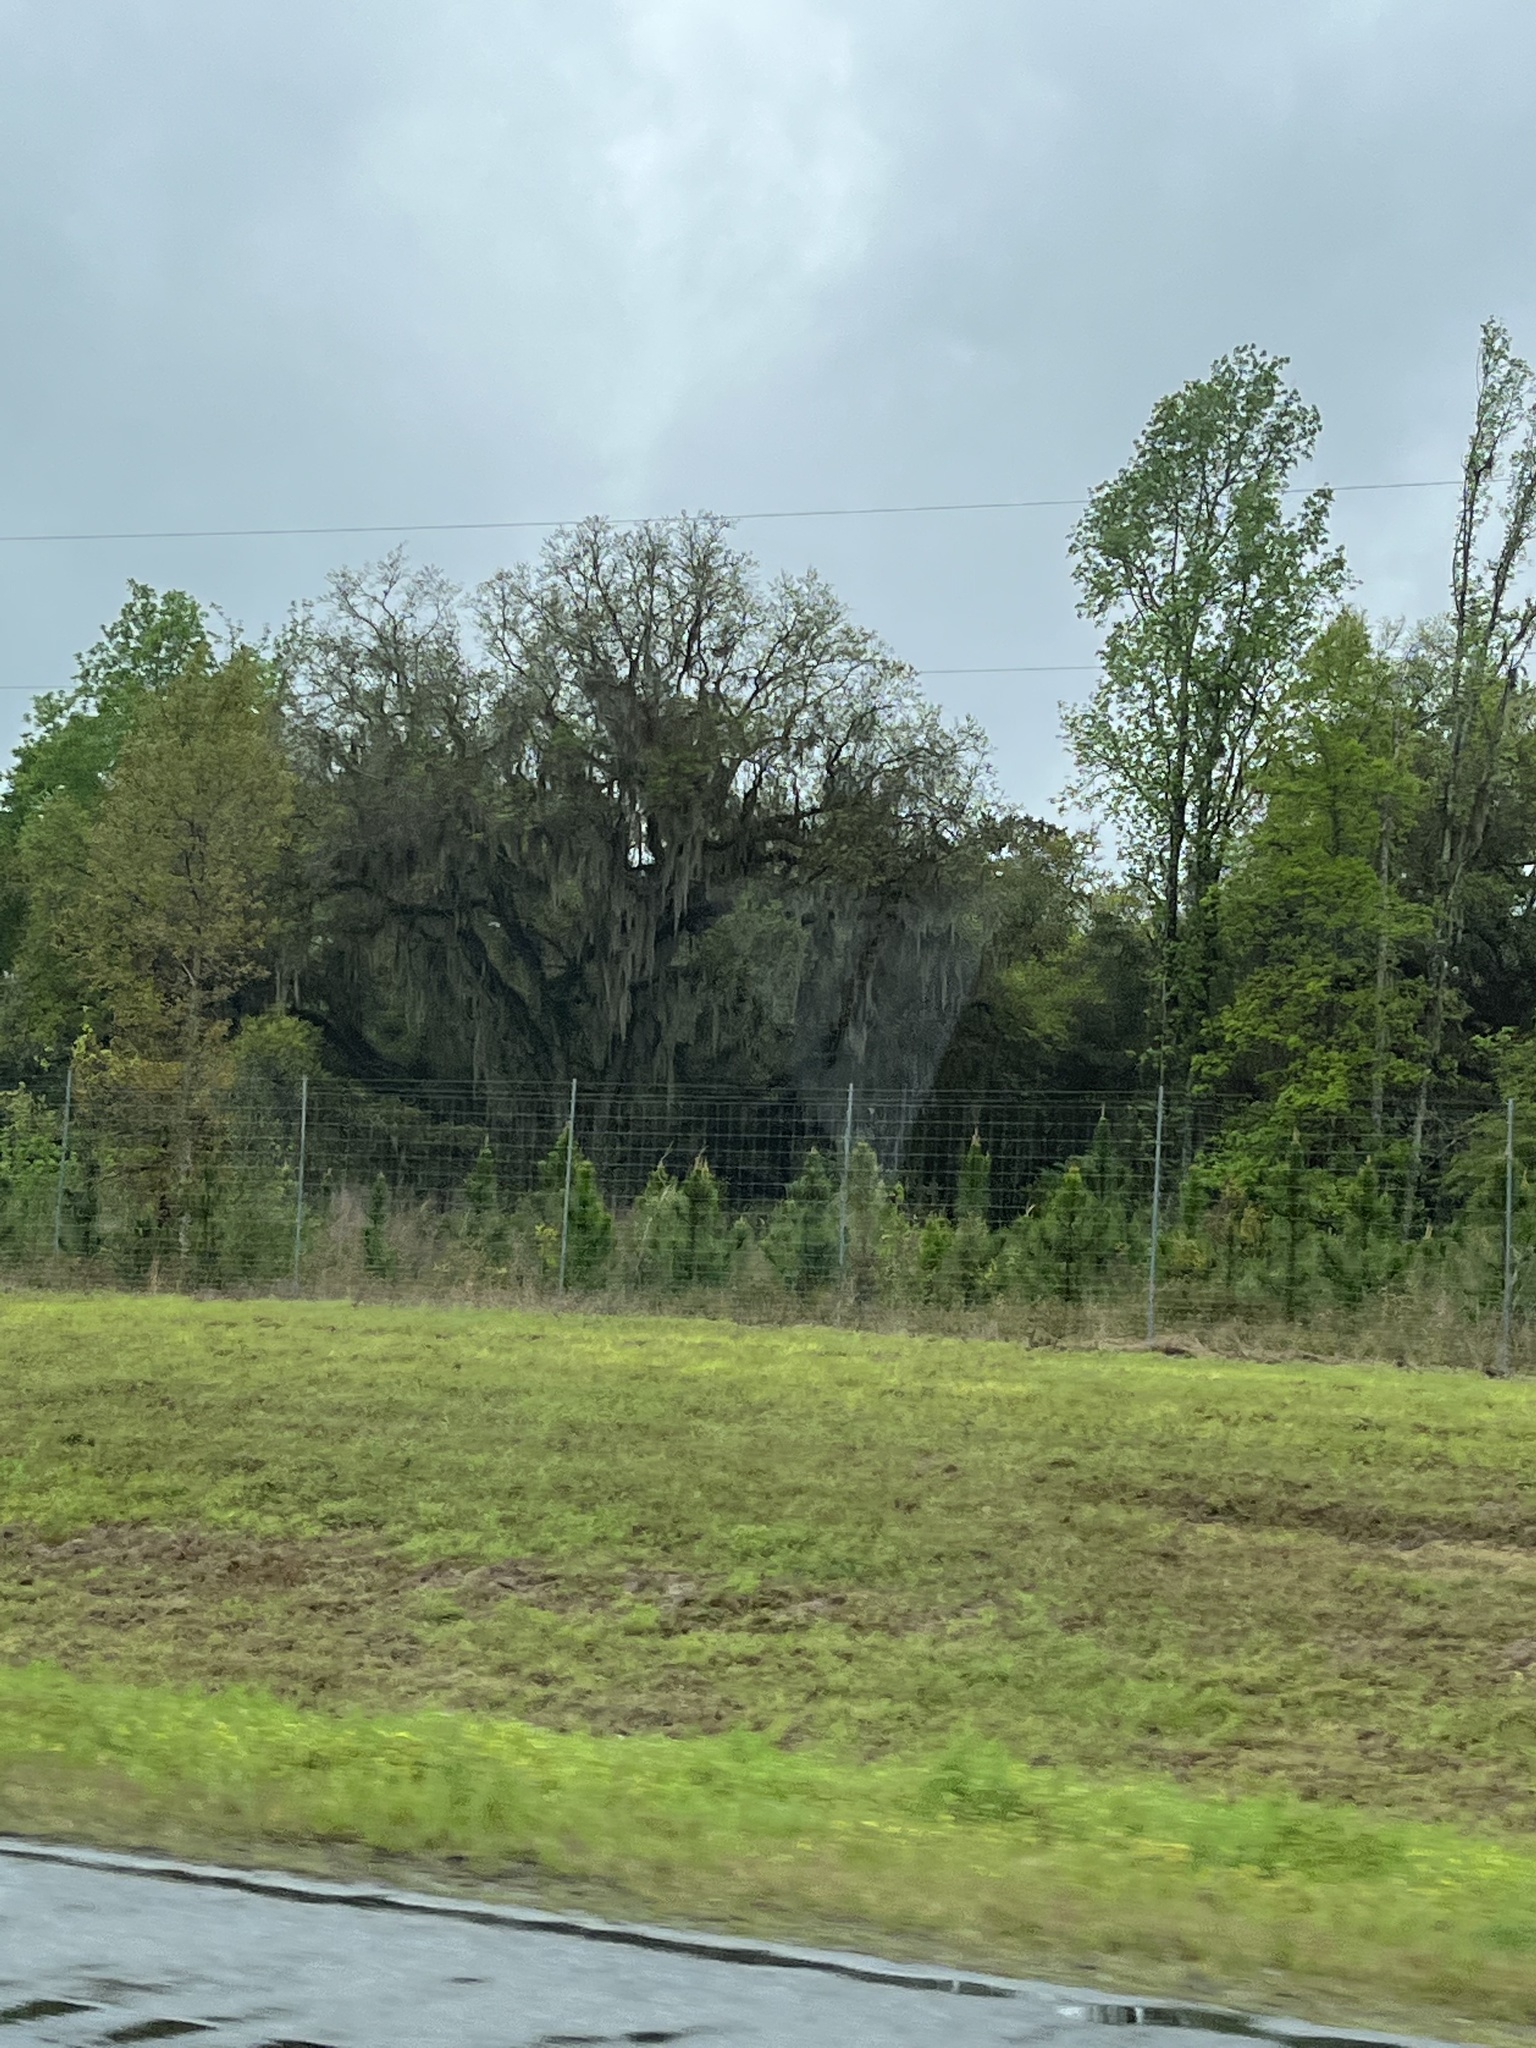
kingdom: Plantae
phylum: Tracheophyta
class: Liliopsida
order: Poales
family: Bromeliaceae
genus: Tillandsia
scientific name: Tillandsia usneoides
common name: Spanish moss
